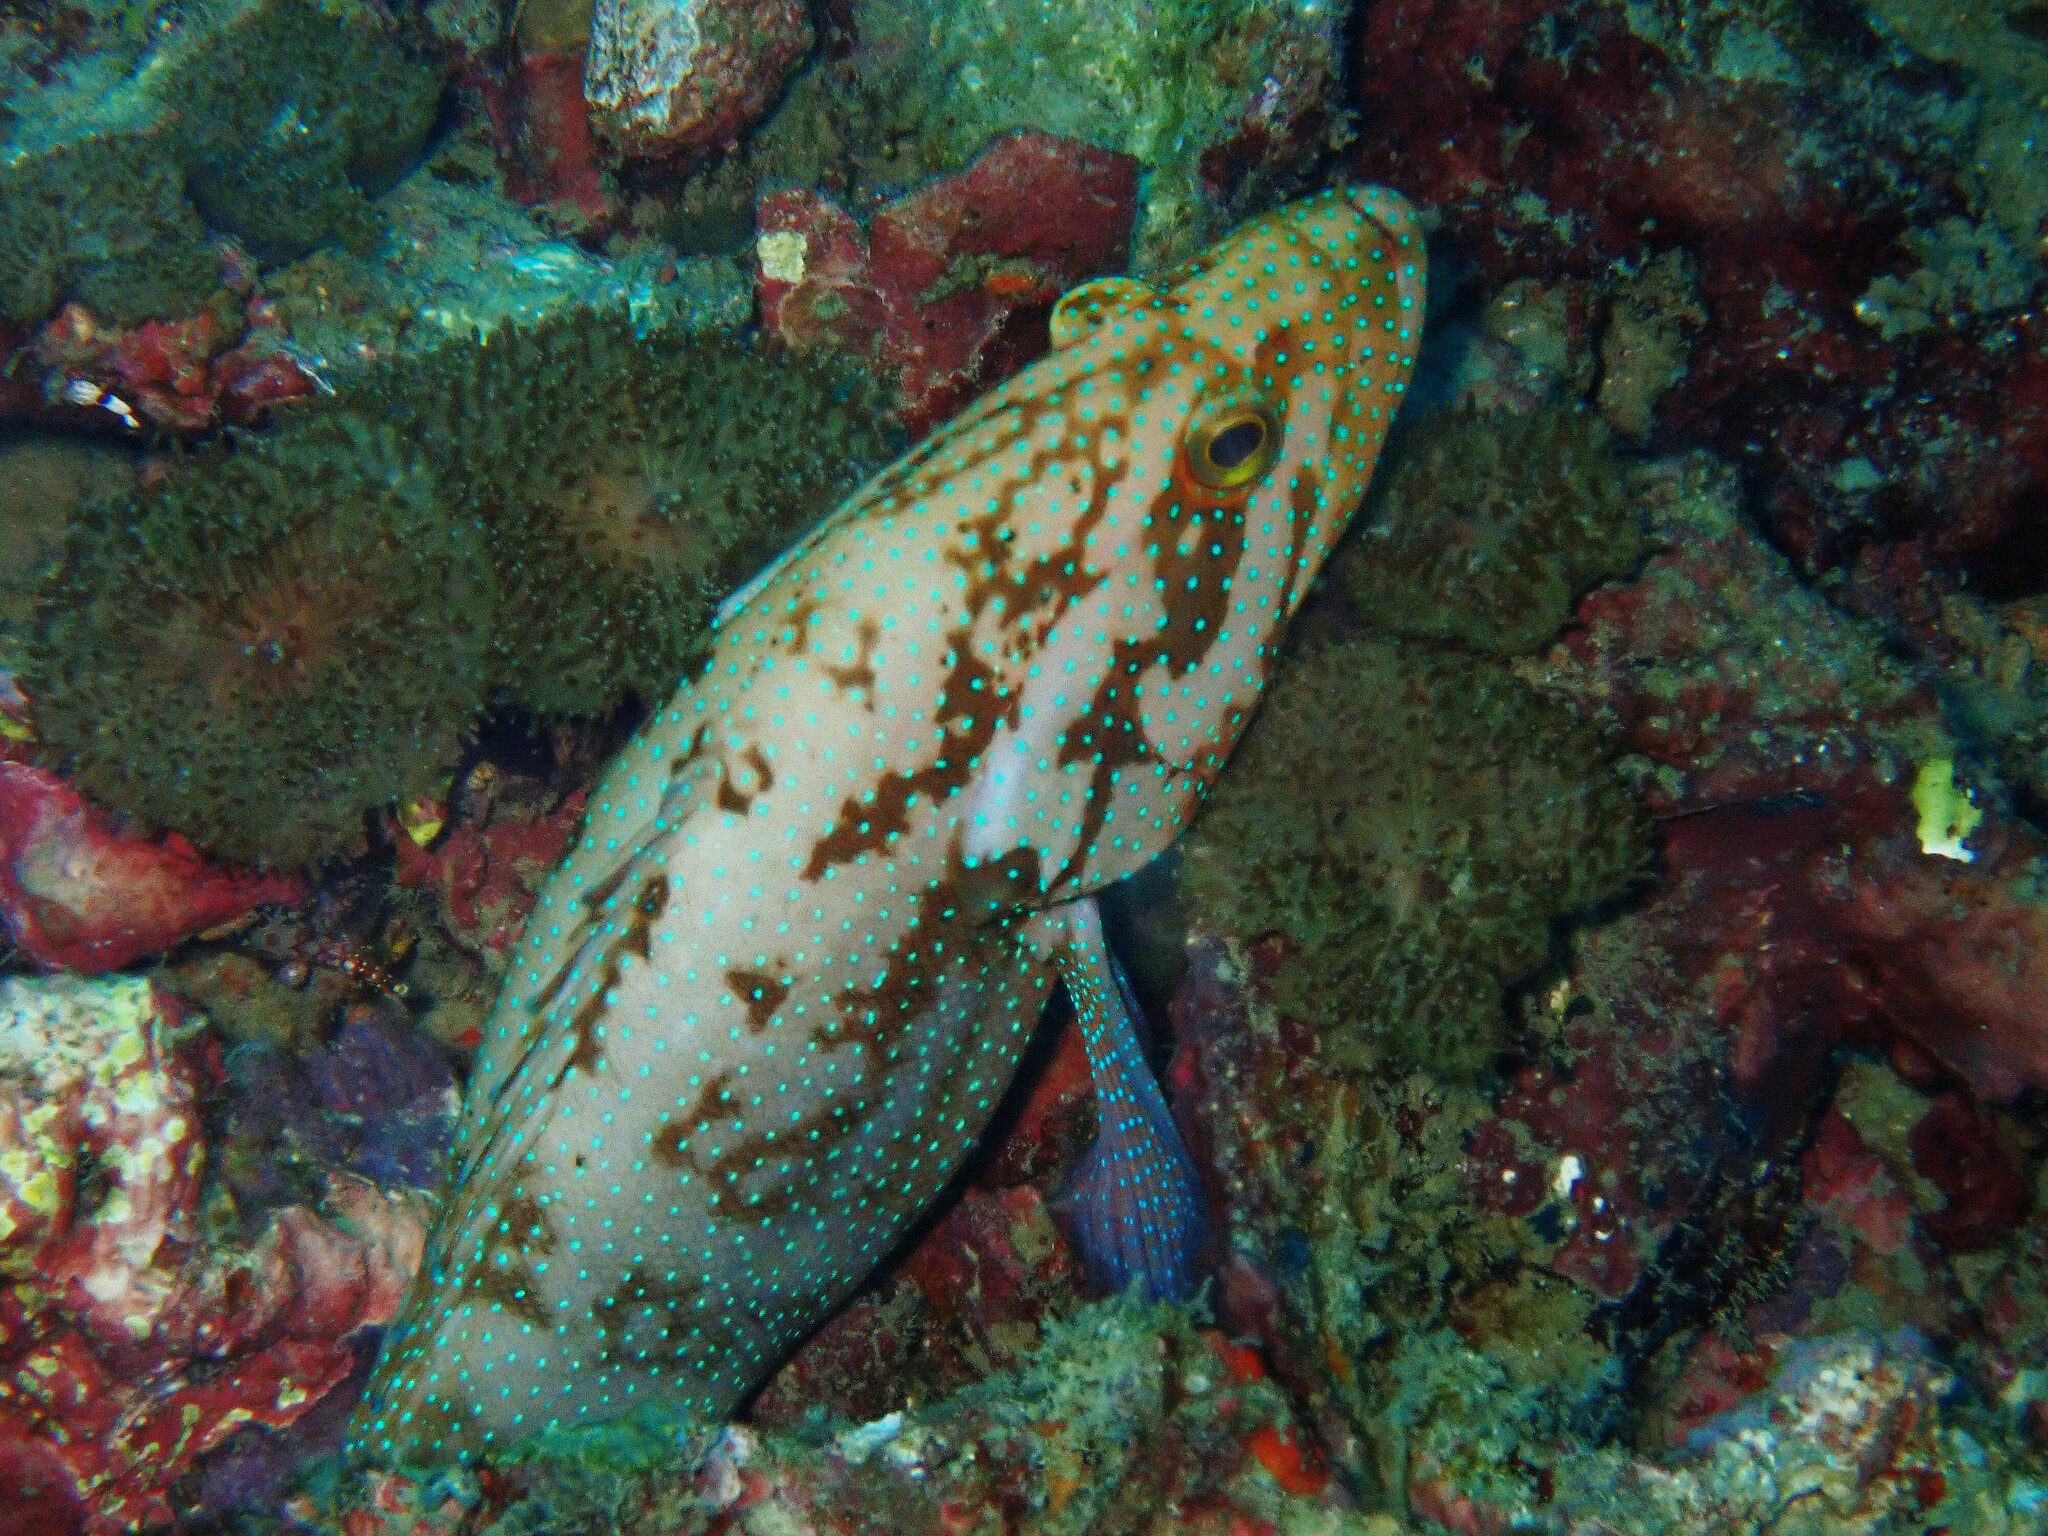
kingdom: Animalia
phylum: Chordata
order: Perciformes
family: Serranidae
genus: Cephalopholis
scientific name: Cephalopholis polyspila
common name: Starry grouper
